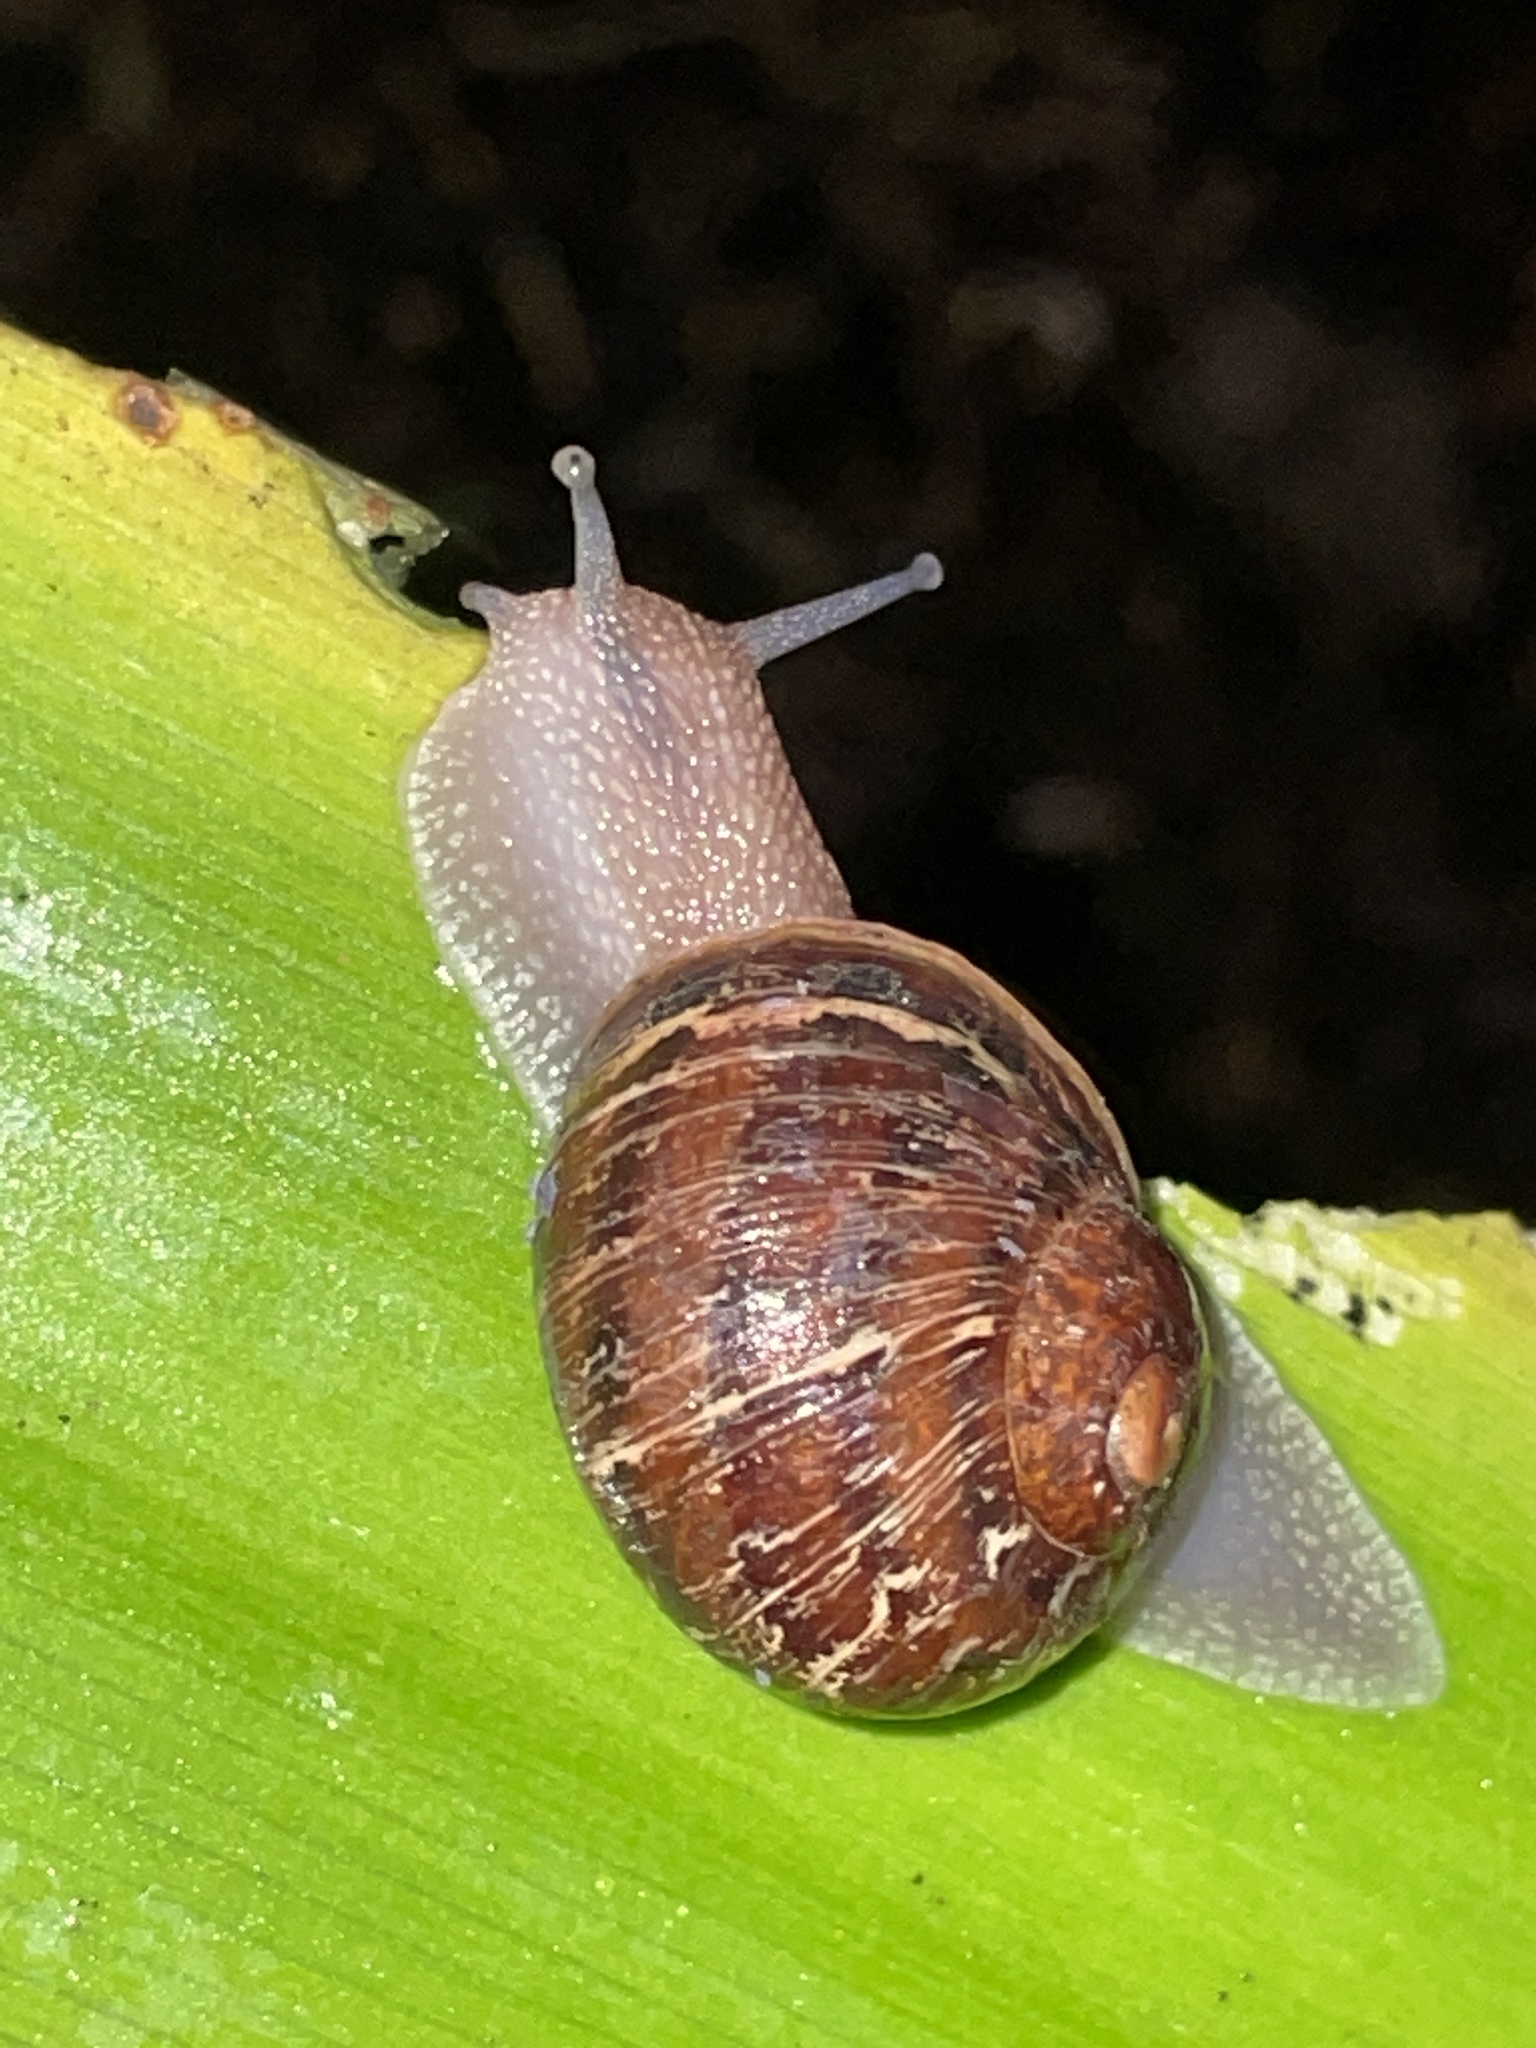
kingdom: Animalia
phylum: Mollusca
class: Gastropoda
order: Stylommatophora
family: Helicidae
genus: Cornu
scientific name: Cornu aspersum
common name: Brown garden snail
